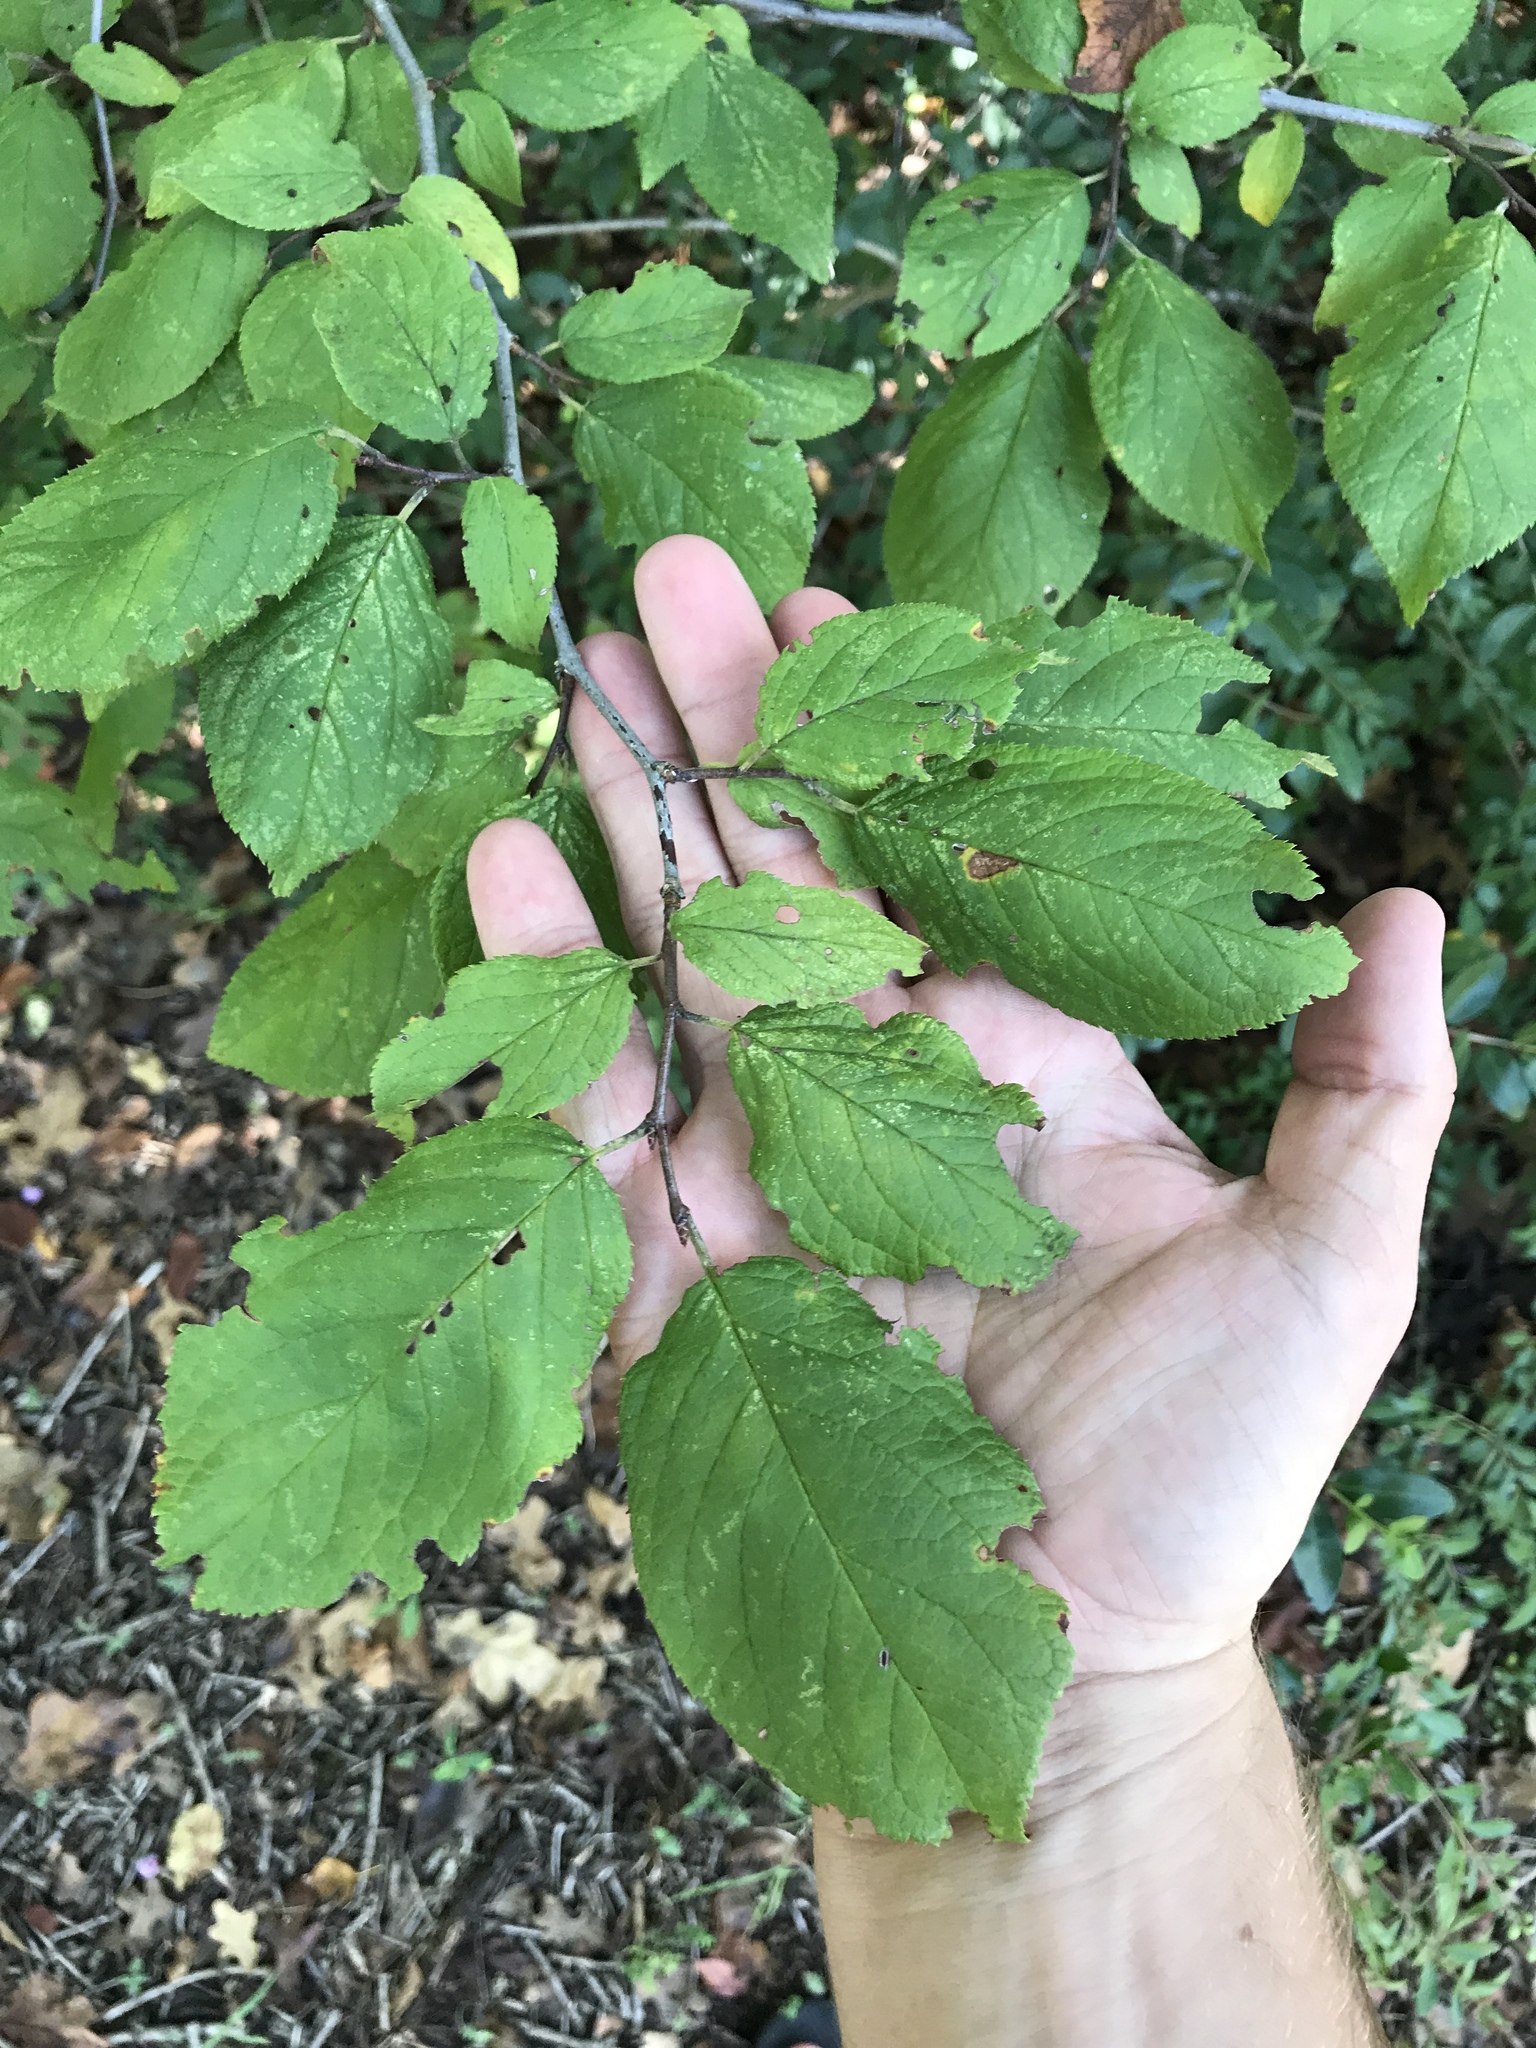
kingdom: Plantae
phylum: Tracheophyta
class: Magnoliopsida
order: Rosales
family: Rosaceae
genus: Prunus
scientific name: Prunus mexicana
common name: Mexican plum
